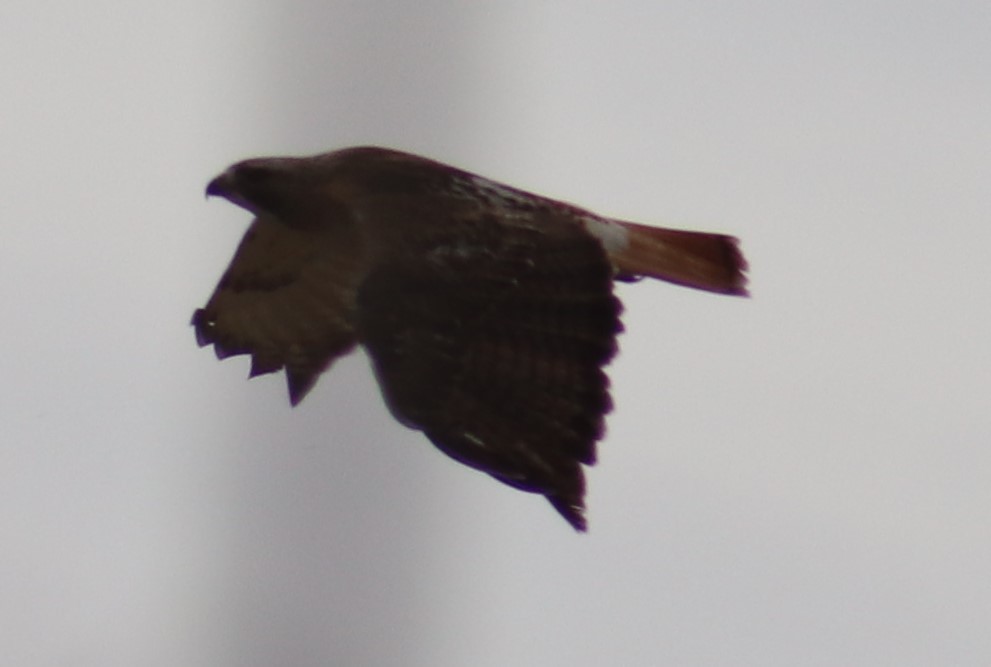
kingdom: Animalia
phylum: Chordata
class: Aves
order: Accipitriformes
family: Accipitridae
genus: Buteo
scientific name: Buteo jamaicensis
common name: Red-tailed hawk
